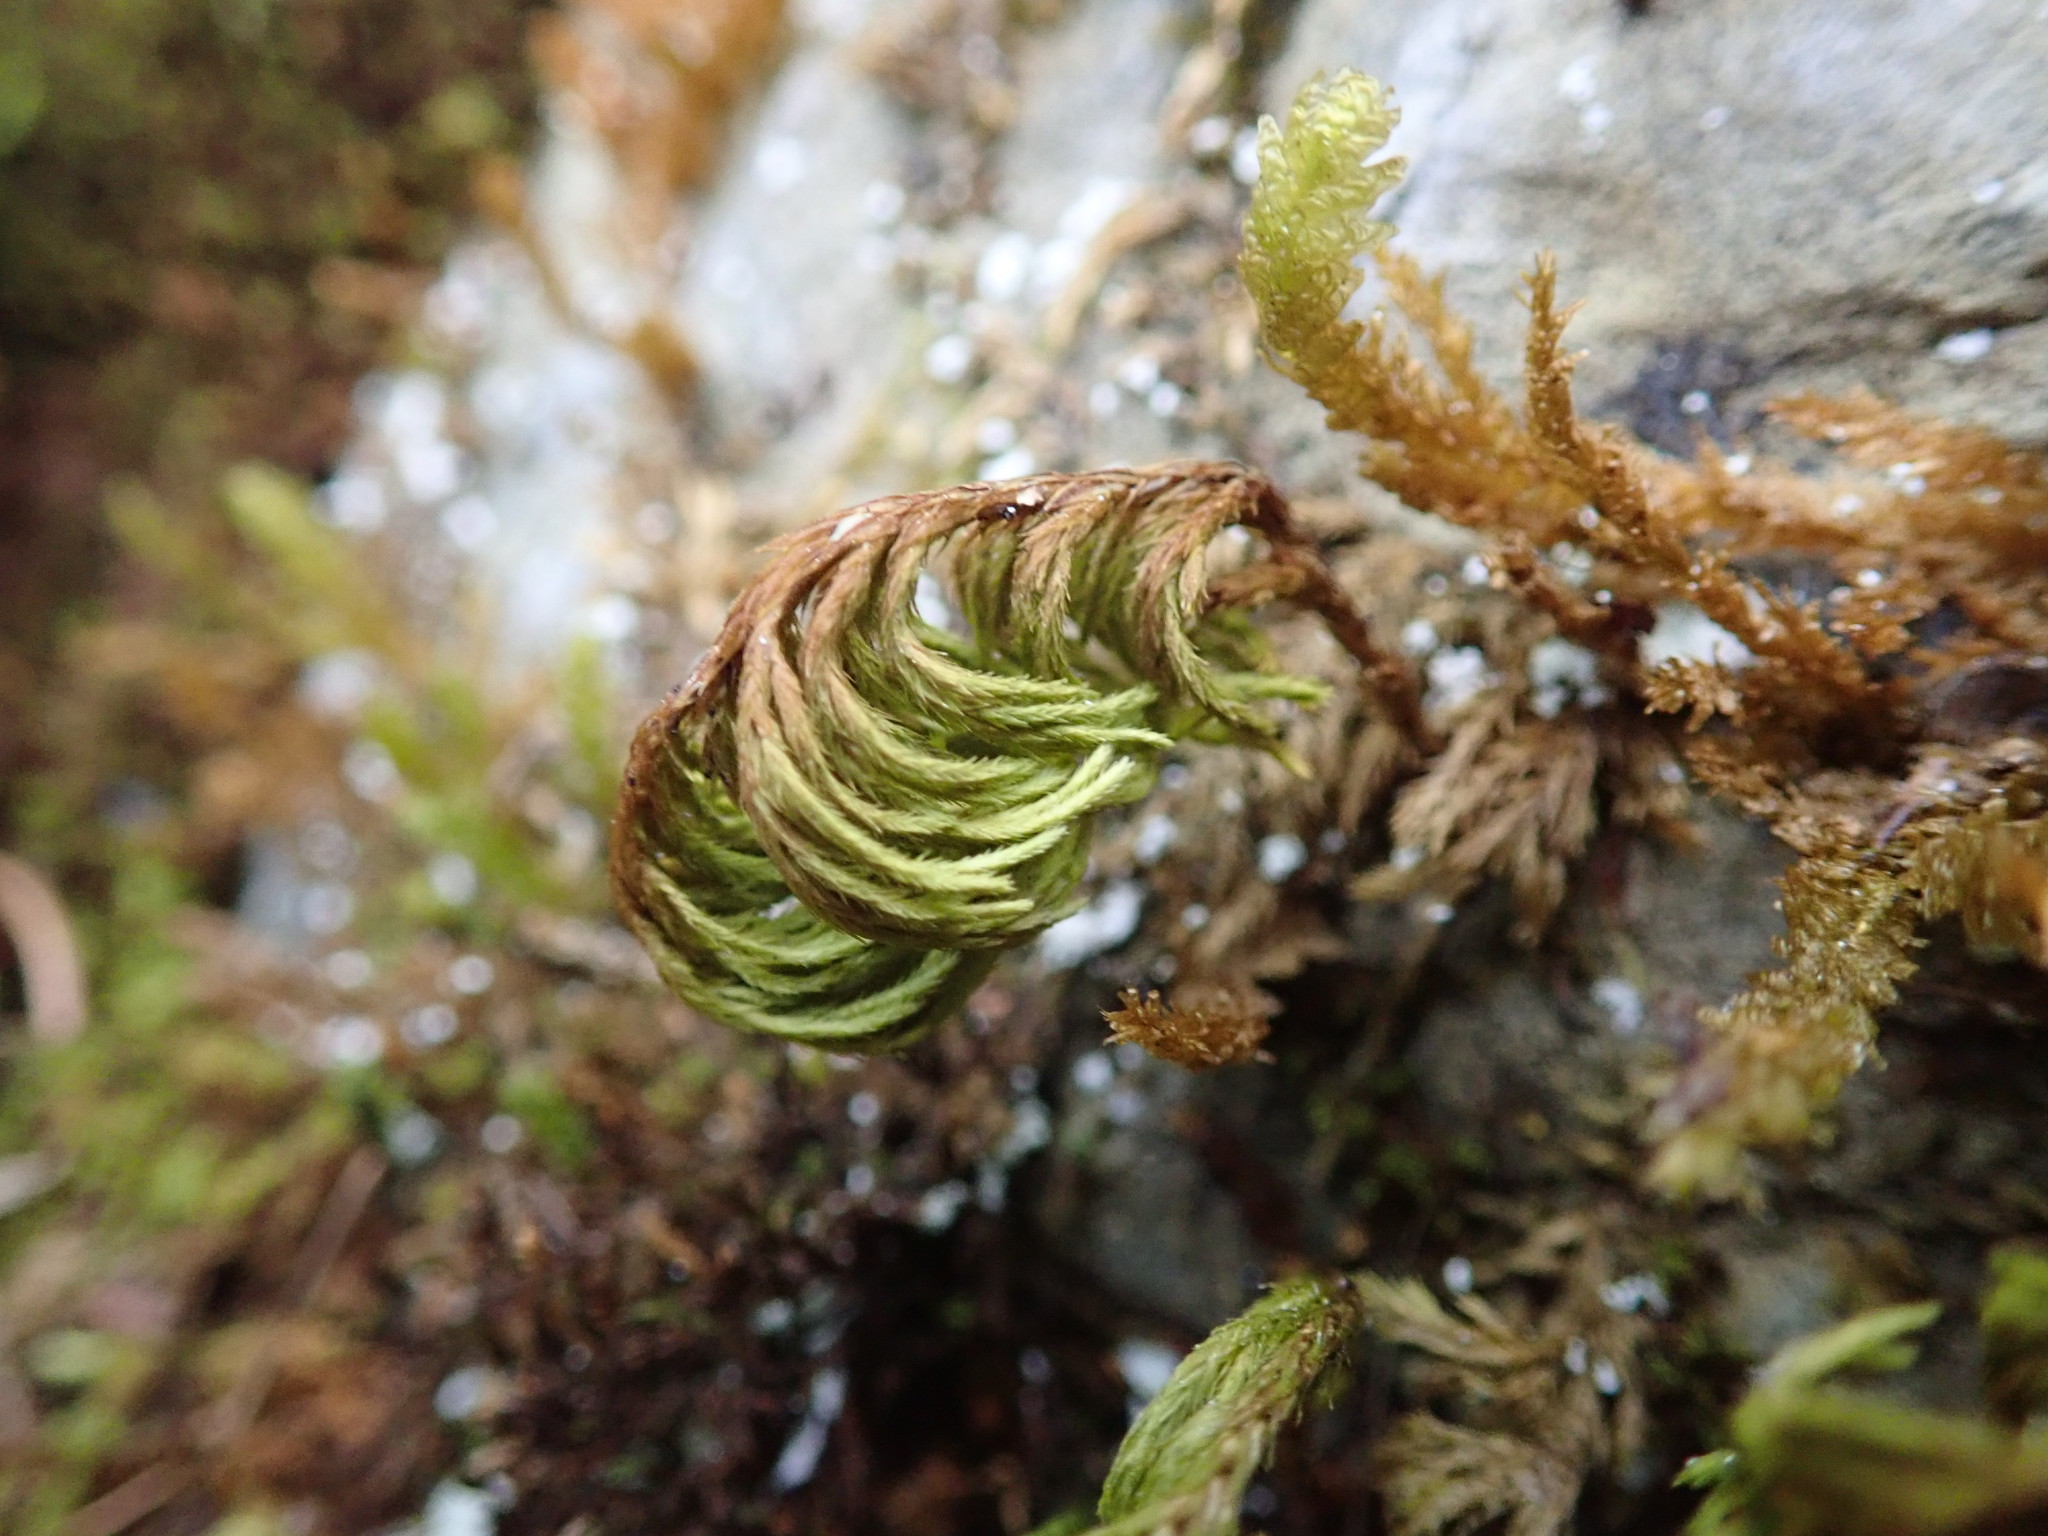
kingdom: Plantae
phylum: Bryophyta
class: Bryopsida
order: Hypnales
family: Cryphaeaceae
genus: Dendroalsia
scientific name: Dendroalsia abietina
